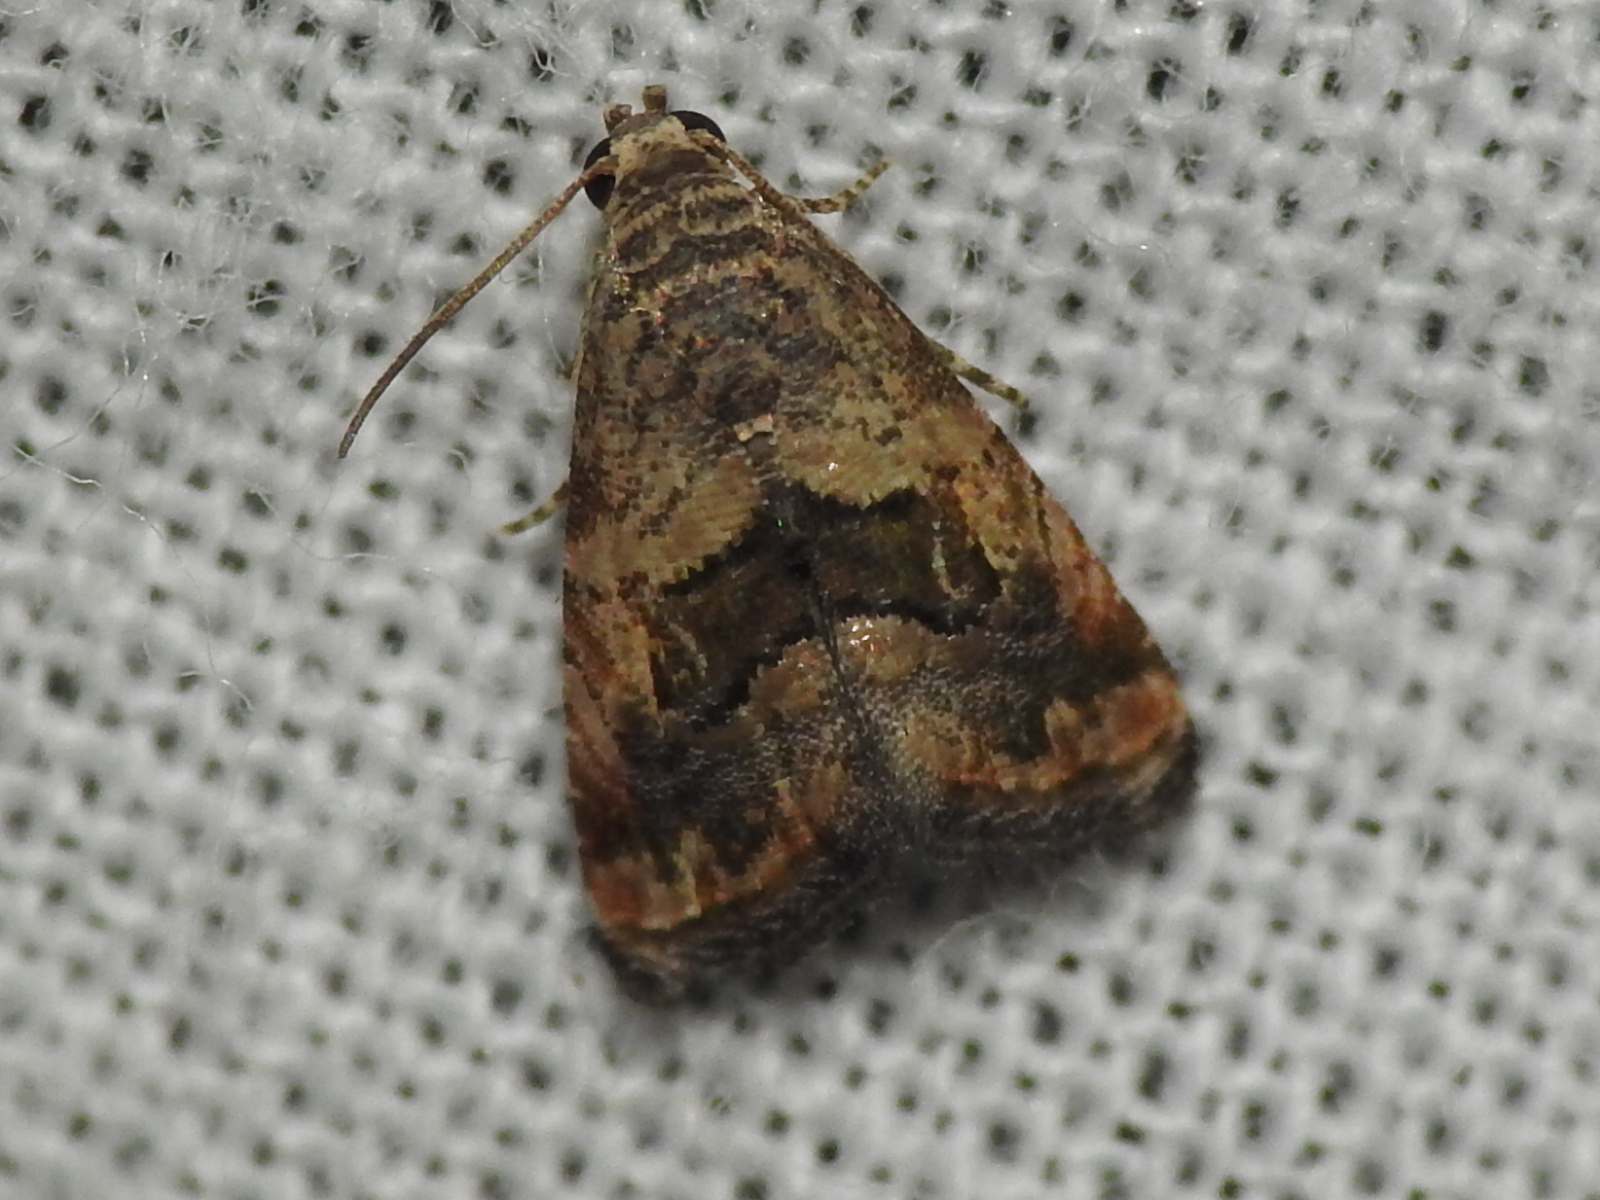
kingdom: Animalia
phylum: Arthropoda
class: Insecta
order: Lepidoptera
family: Noctuidae
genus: Tripudia
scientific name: Tripudia quadrifera
